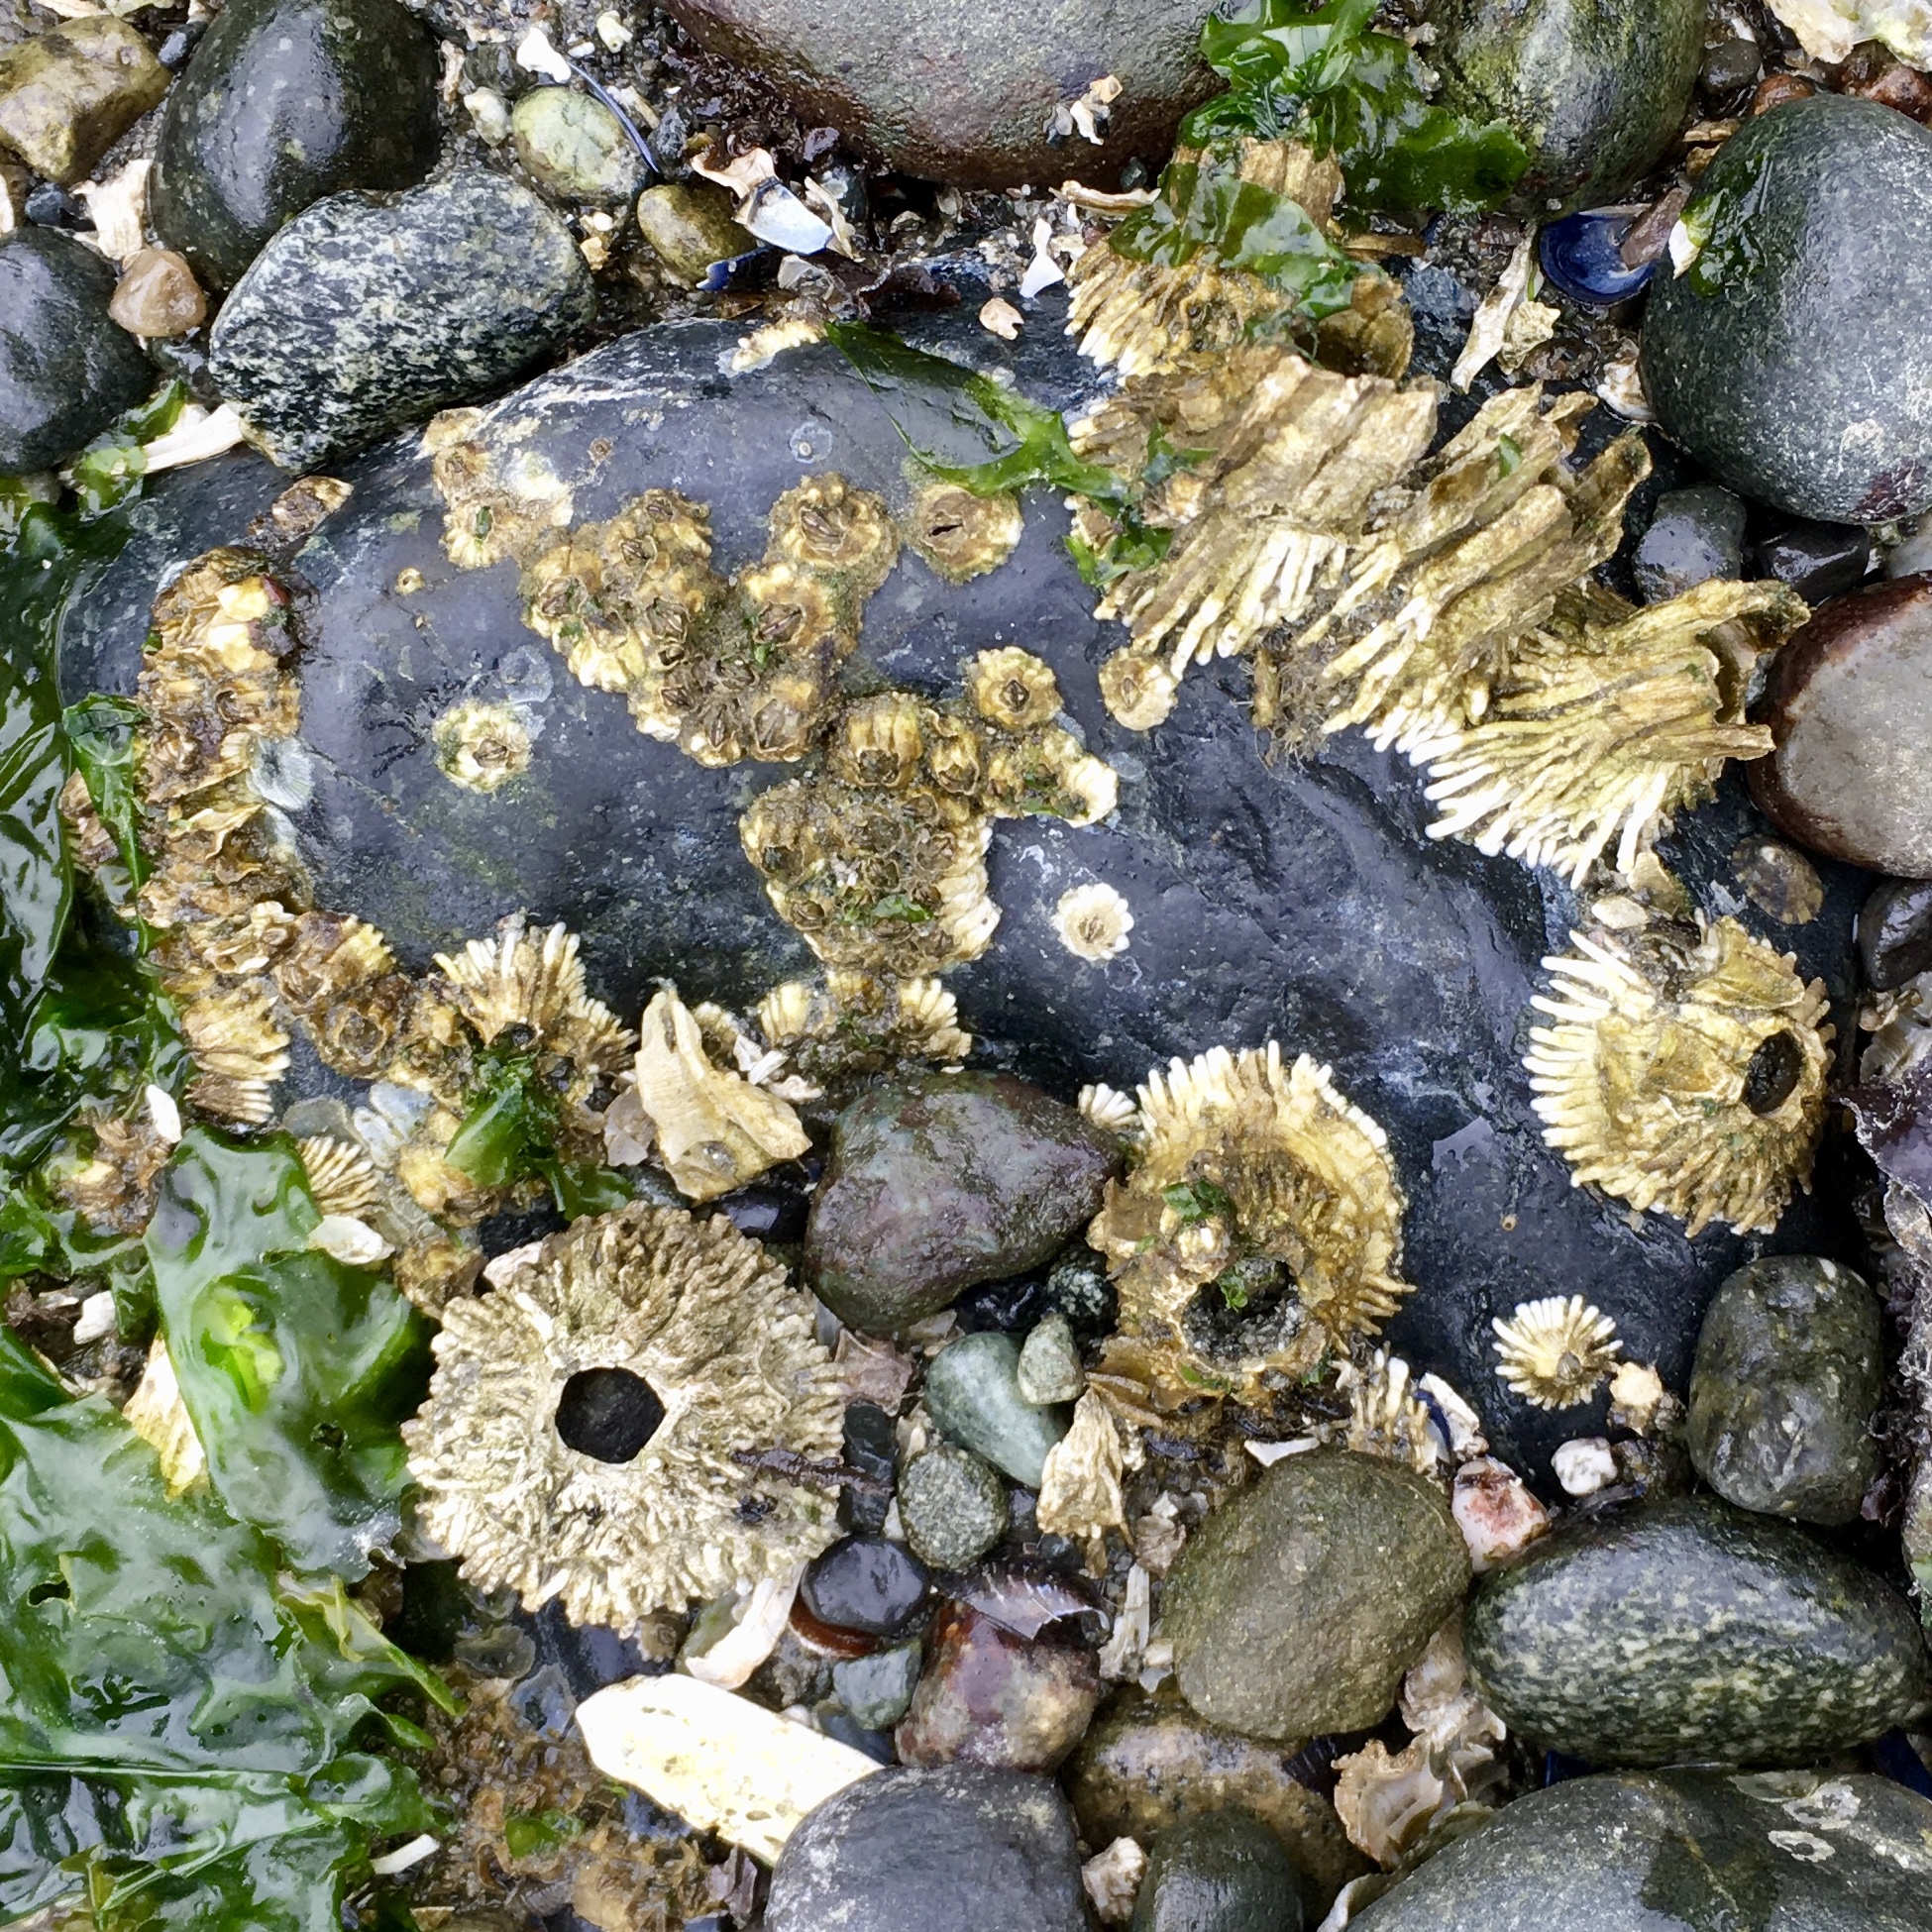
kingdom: Animalia
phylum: Arthropoda
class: Maxillopoda
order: Sessilia
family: Archaeobalanidae
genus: Semibalanus
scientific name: Semibalanus cariosus
